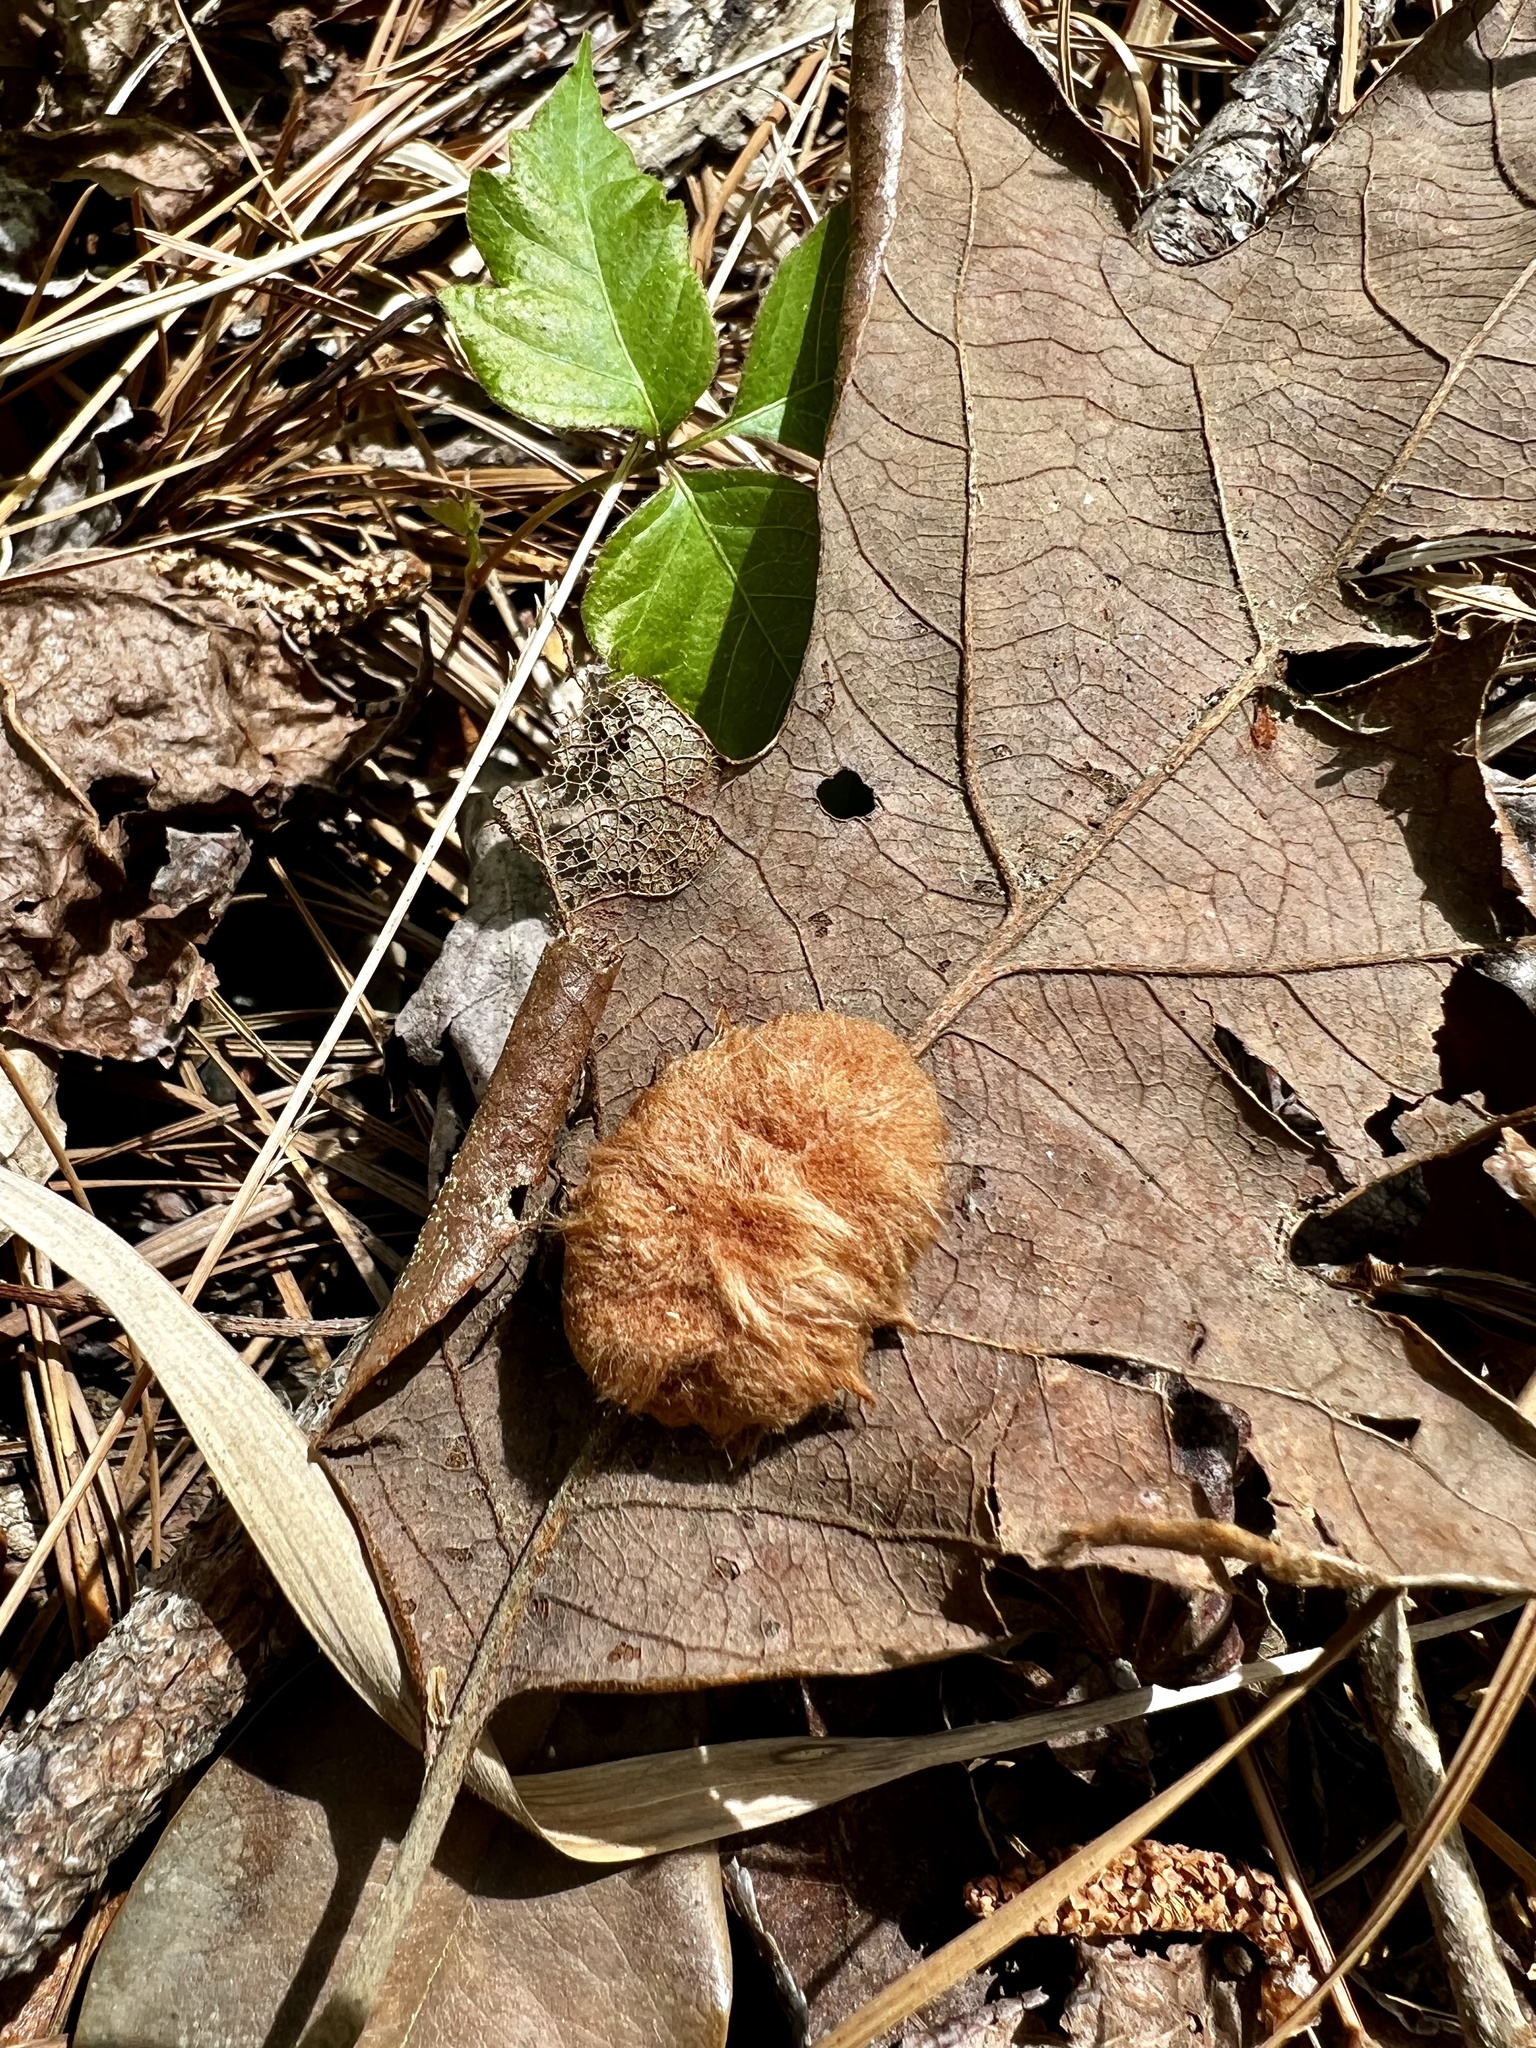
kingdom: Animalia
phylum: Arthropoda
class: Insecta
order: Hymenoptera
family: Cynipidae
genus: Andricus
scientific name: Andricus Druon pattoni
